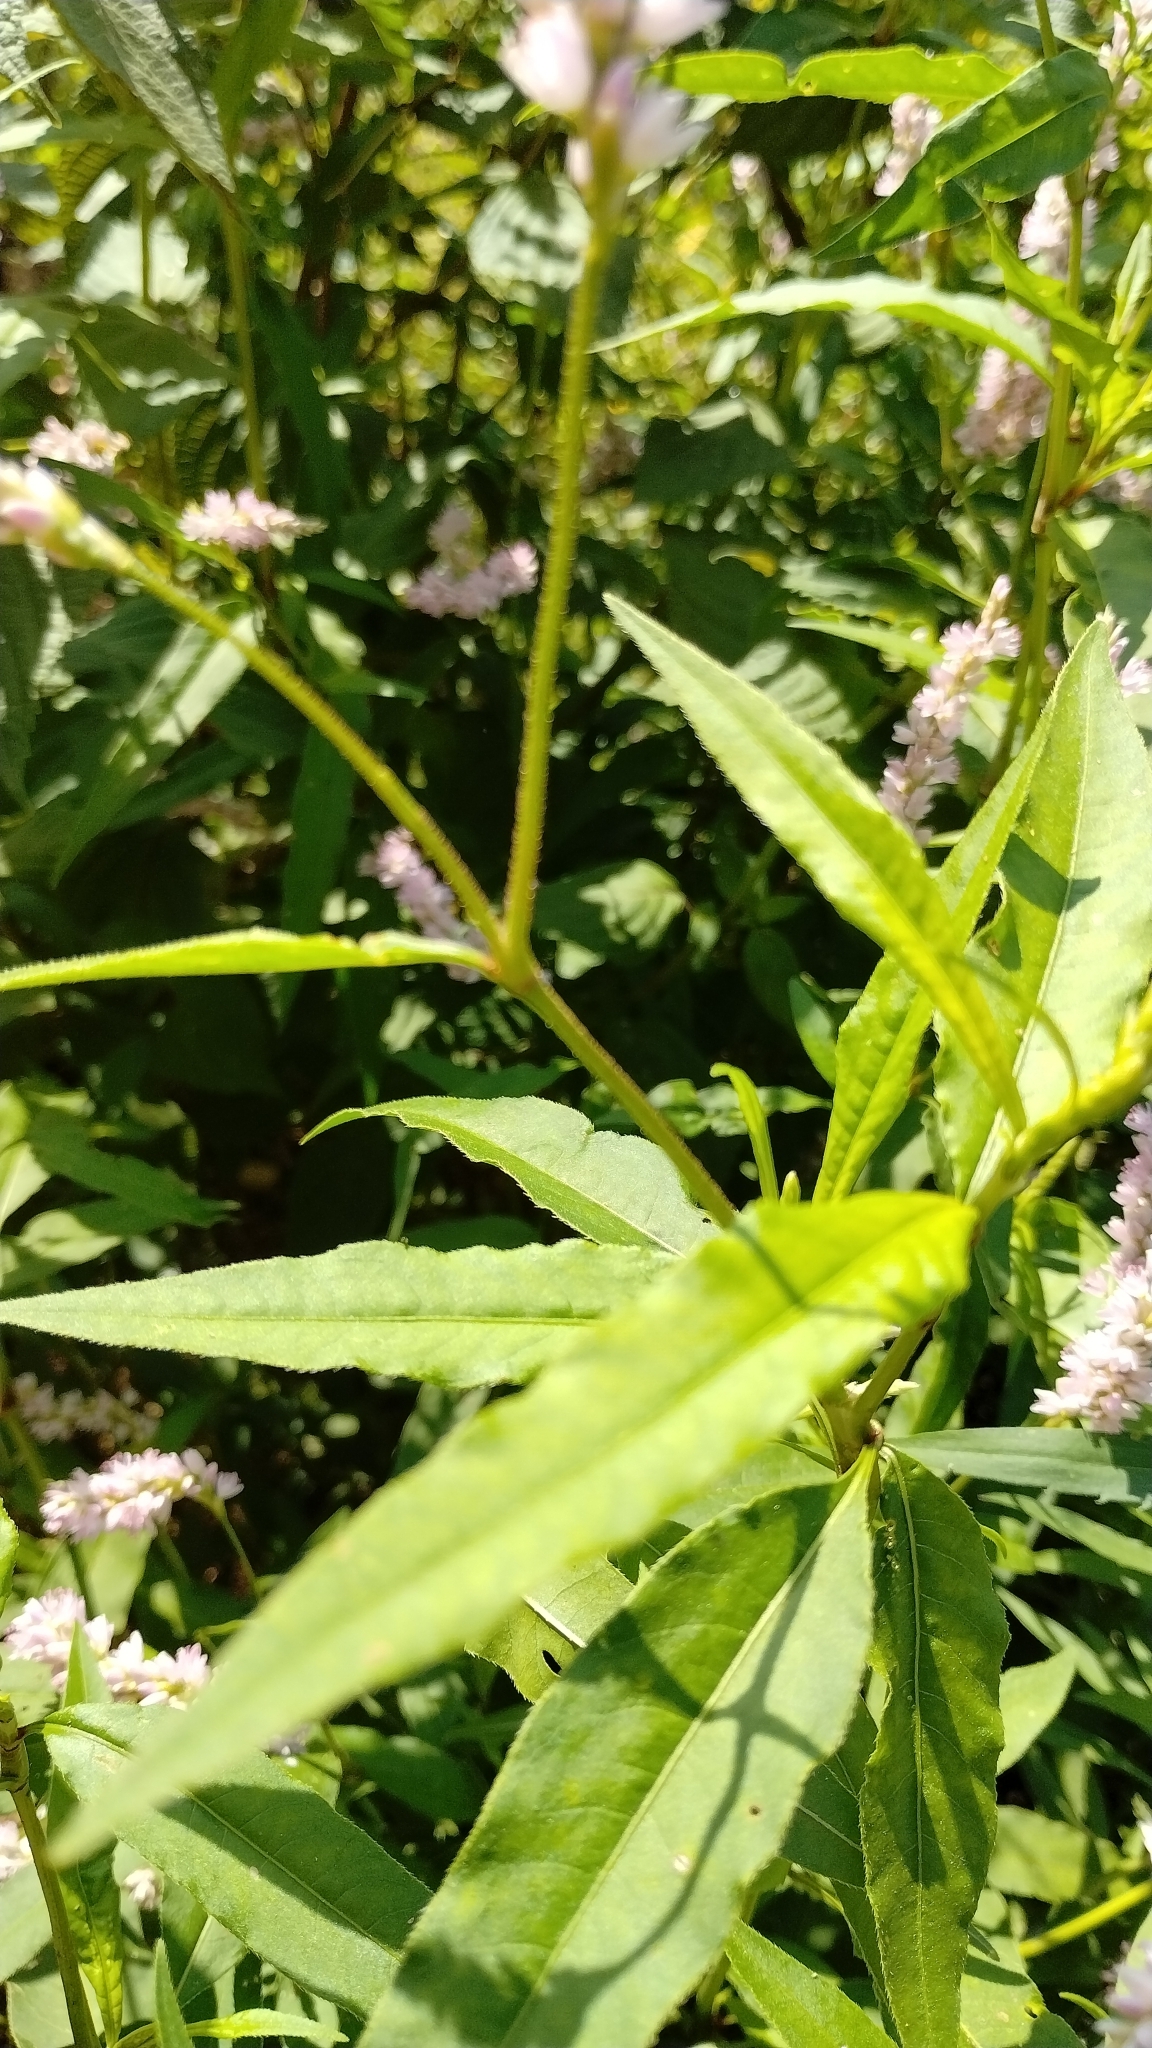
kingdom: Plantae
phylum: Tracheophyta
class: Magnoliopsida
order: Caryophyllales
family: Polygonaceae
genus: Persicaria
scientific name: Persicaria bicornis
